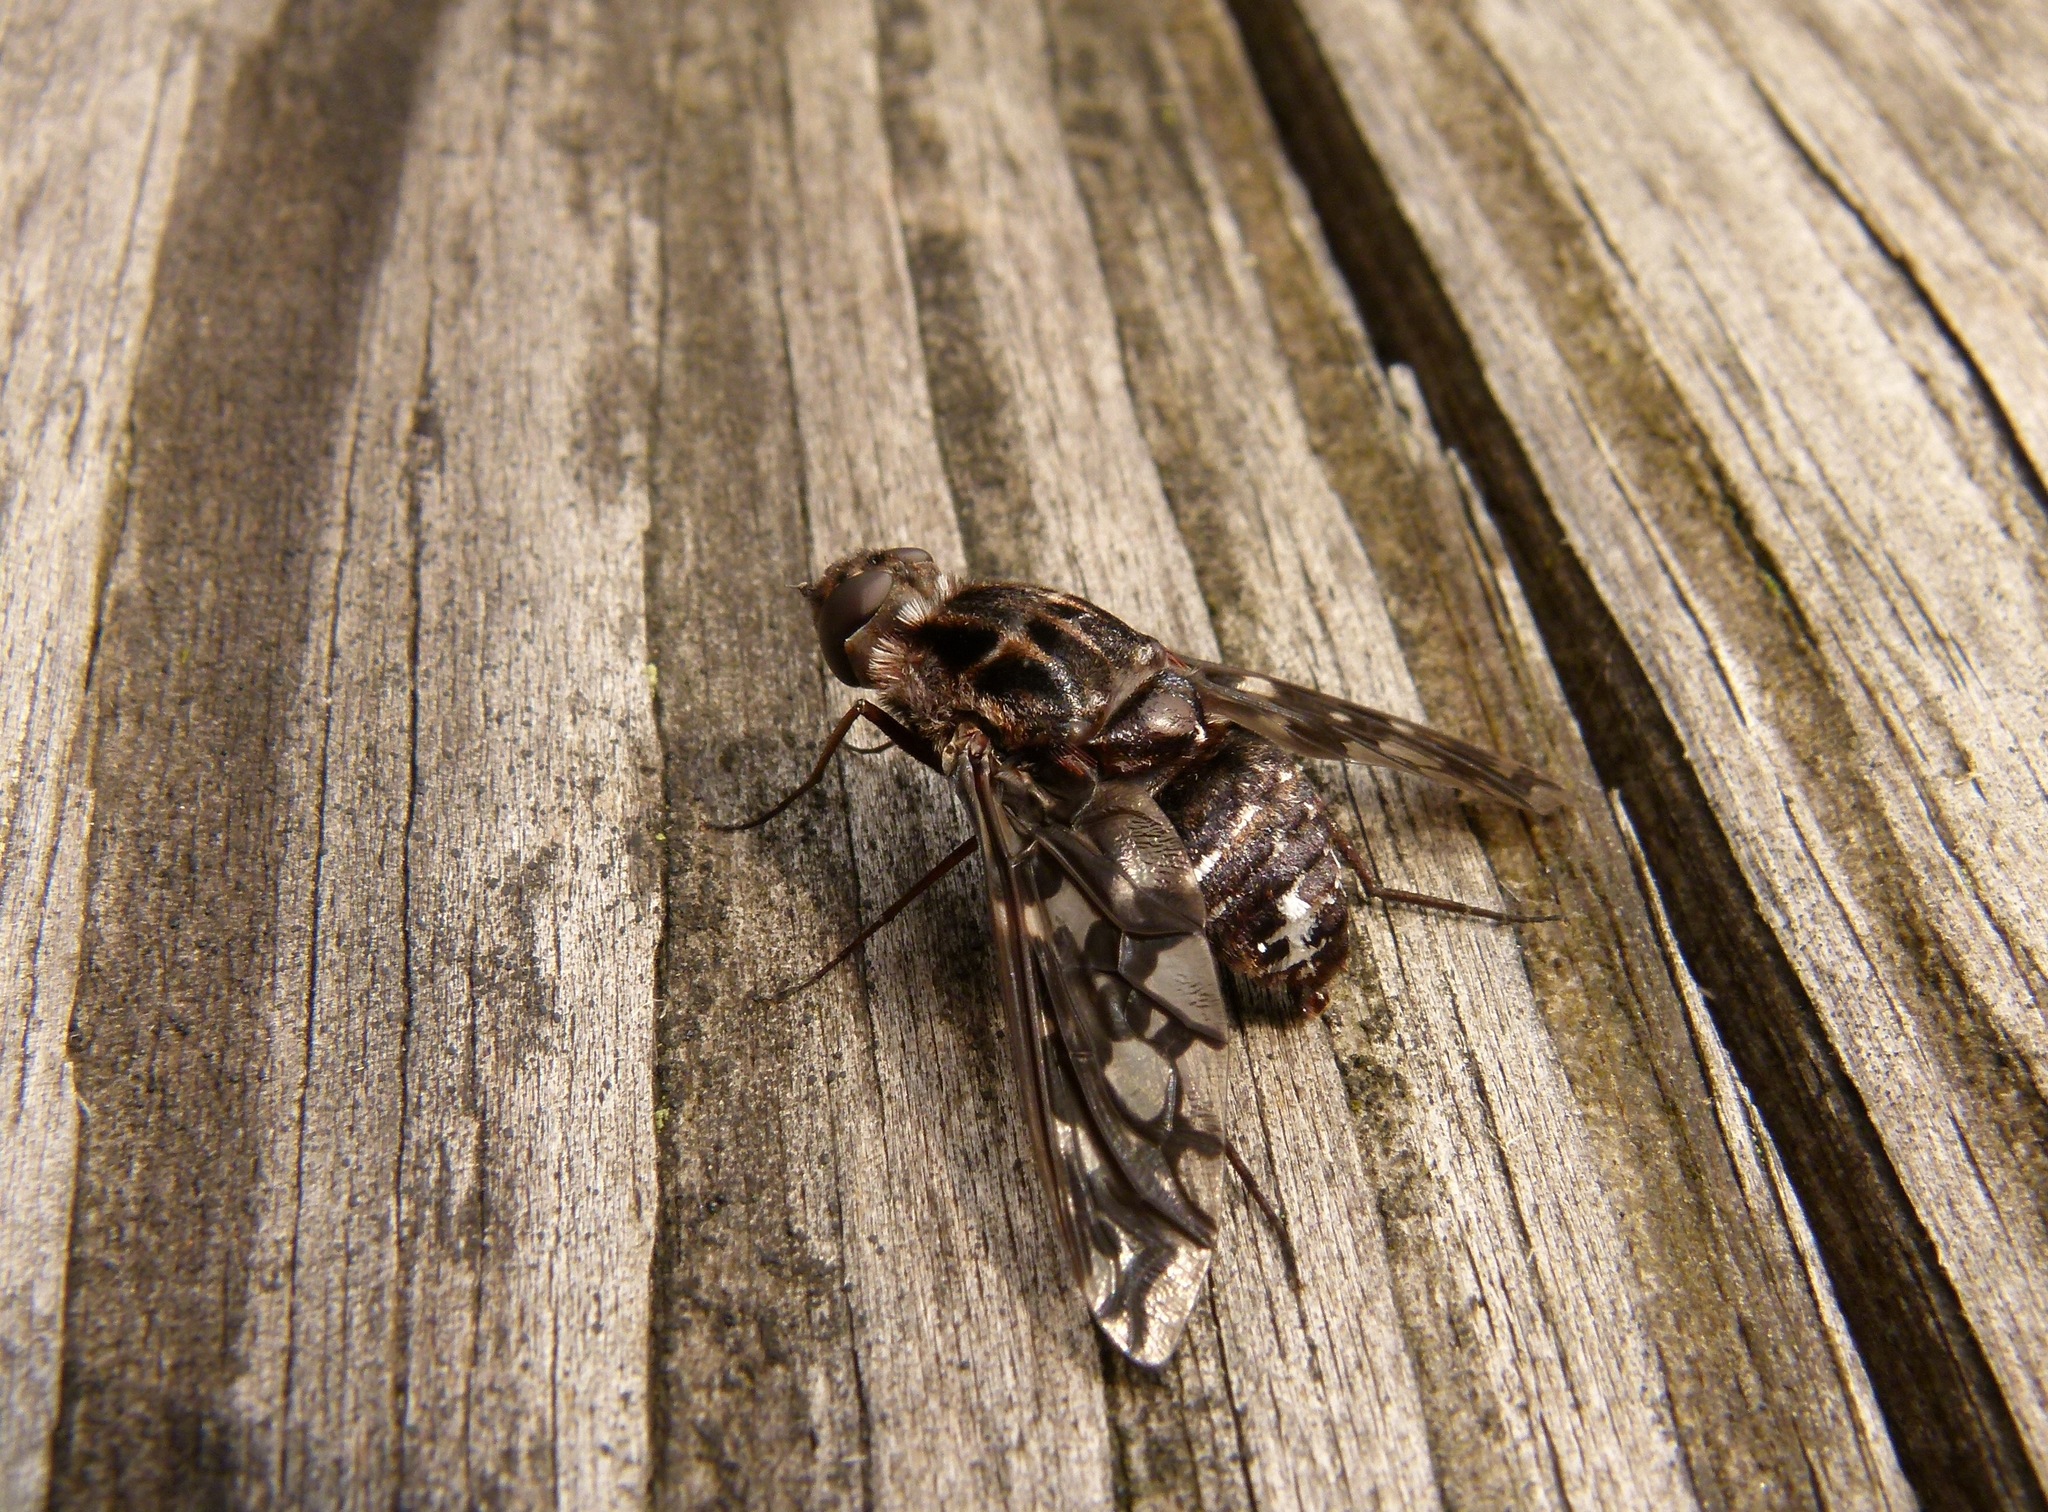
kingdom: Animalia
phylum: Arthropoda
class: Insecta
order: Diptera
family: Bombyliidae
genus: Xenox
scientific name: Xenox tigrinus
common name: Tiger bee fly
